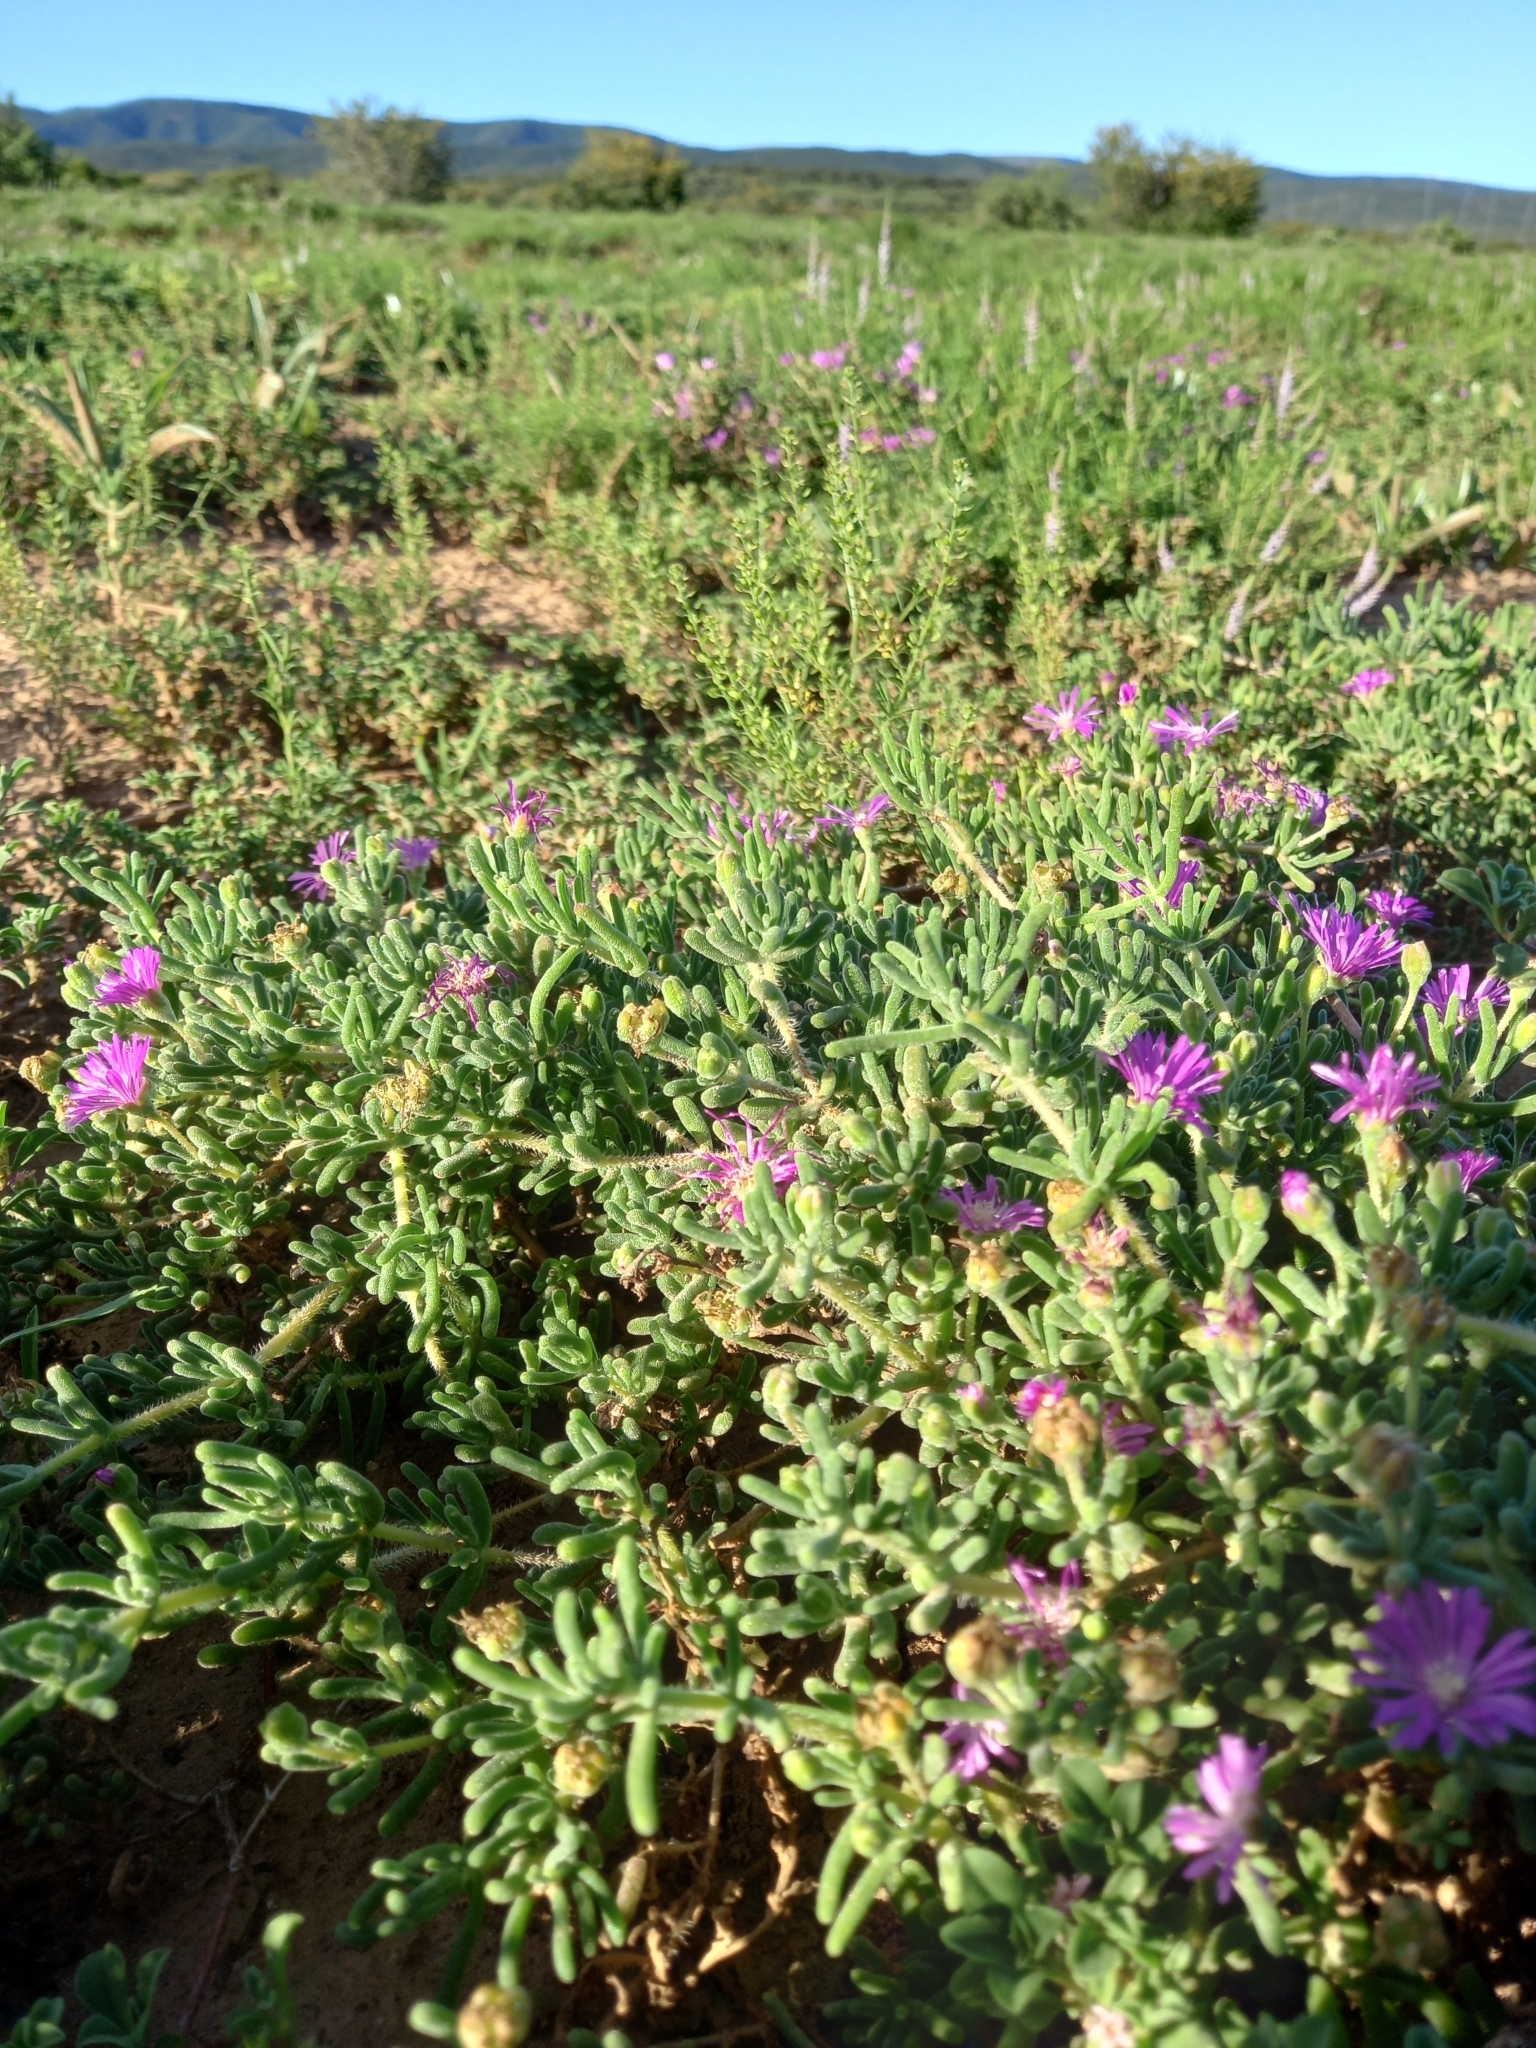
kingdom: Plantae
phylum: Tracheophyta
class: Magnoliopsida
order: Caryophyllales
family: Aizoaceae
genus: Drosanthemum
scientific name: Drosanthemum hispidum
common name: Hairy dewflower
